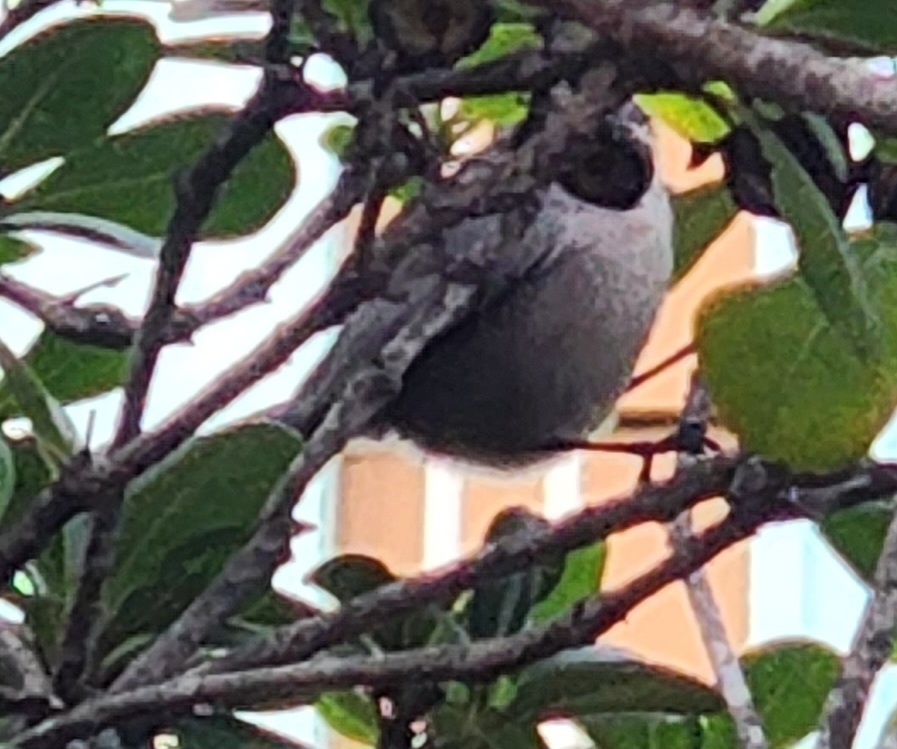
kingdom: Animalia
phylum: Chordata
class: Aves
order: Passeriformes
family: Aegithalidae
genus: Psaltriparus
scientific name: Psaltriparus minimus
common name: American bushtit
